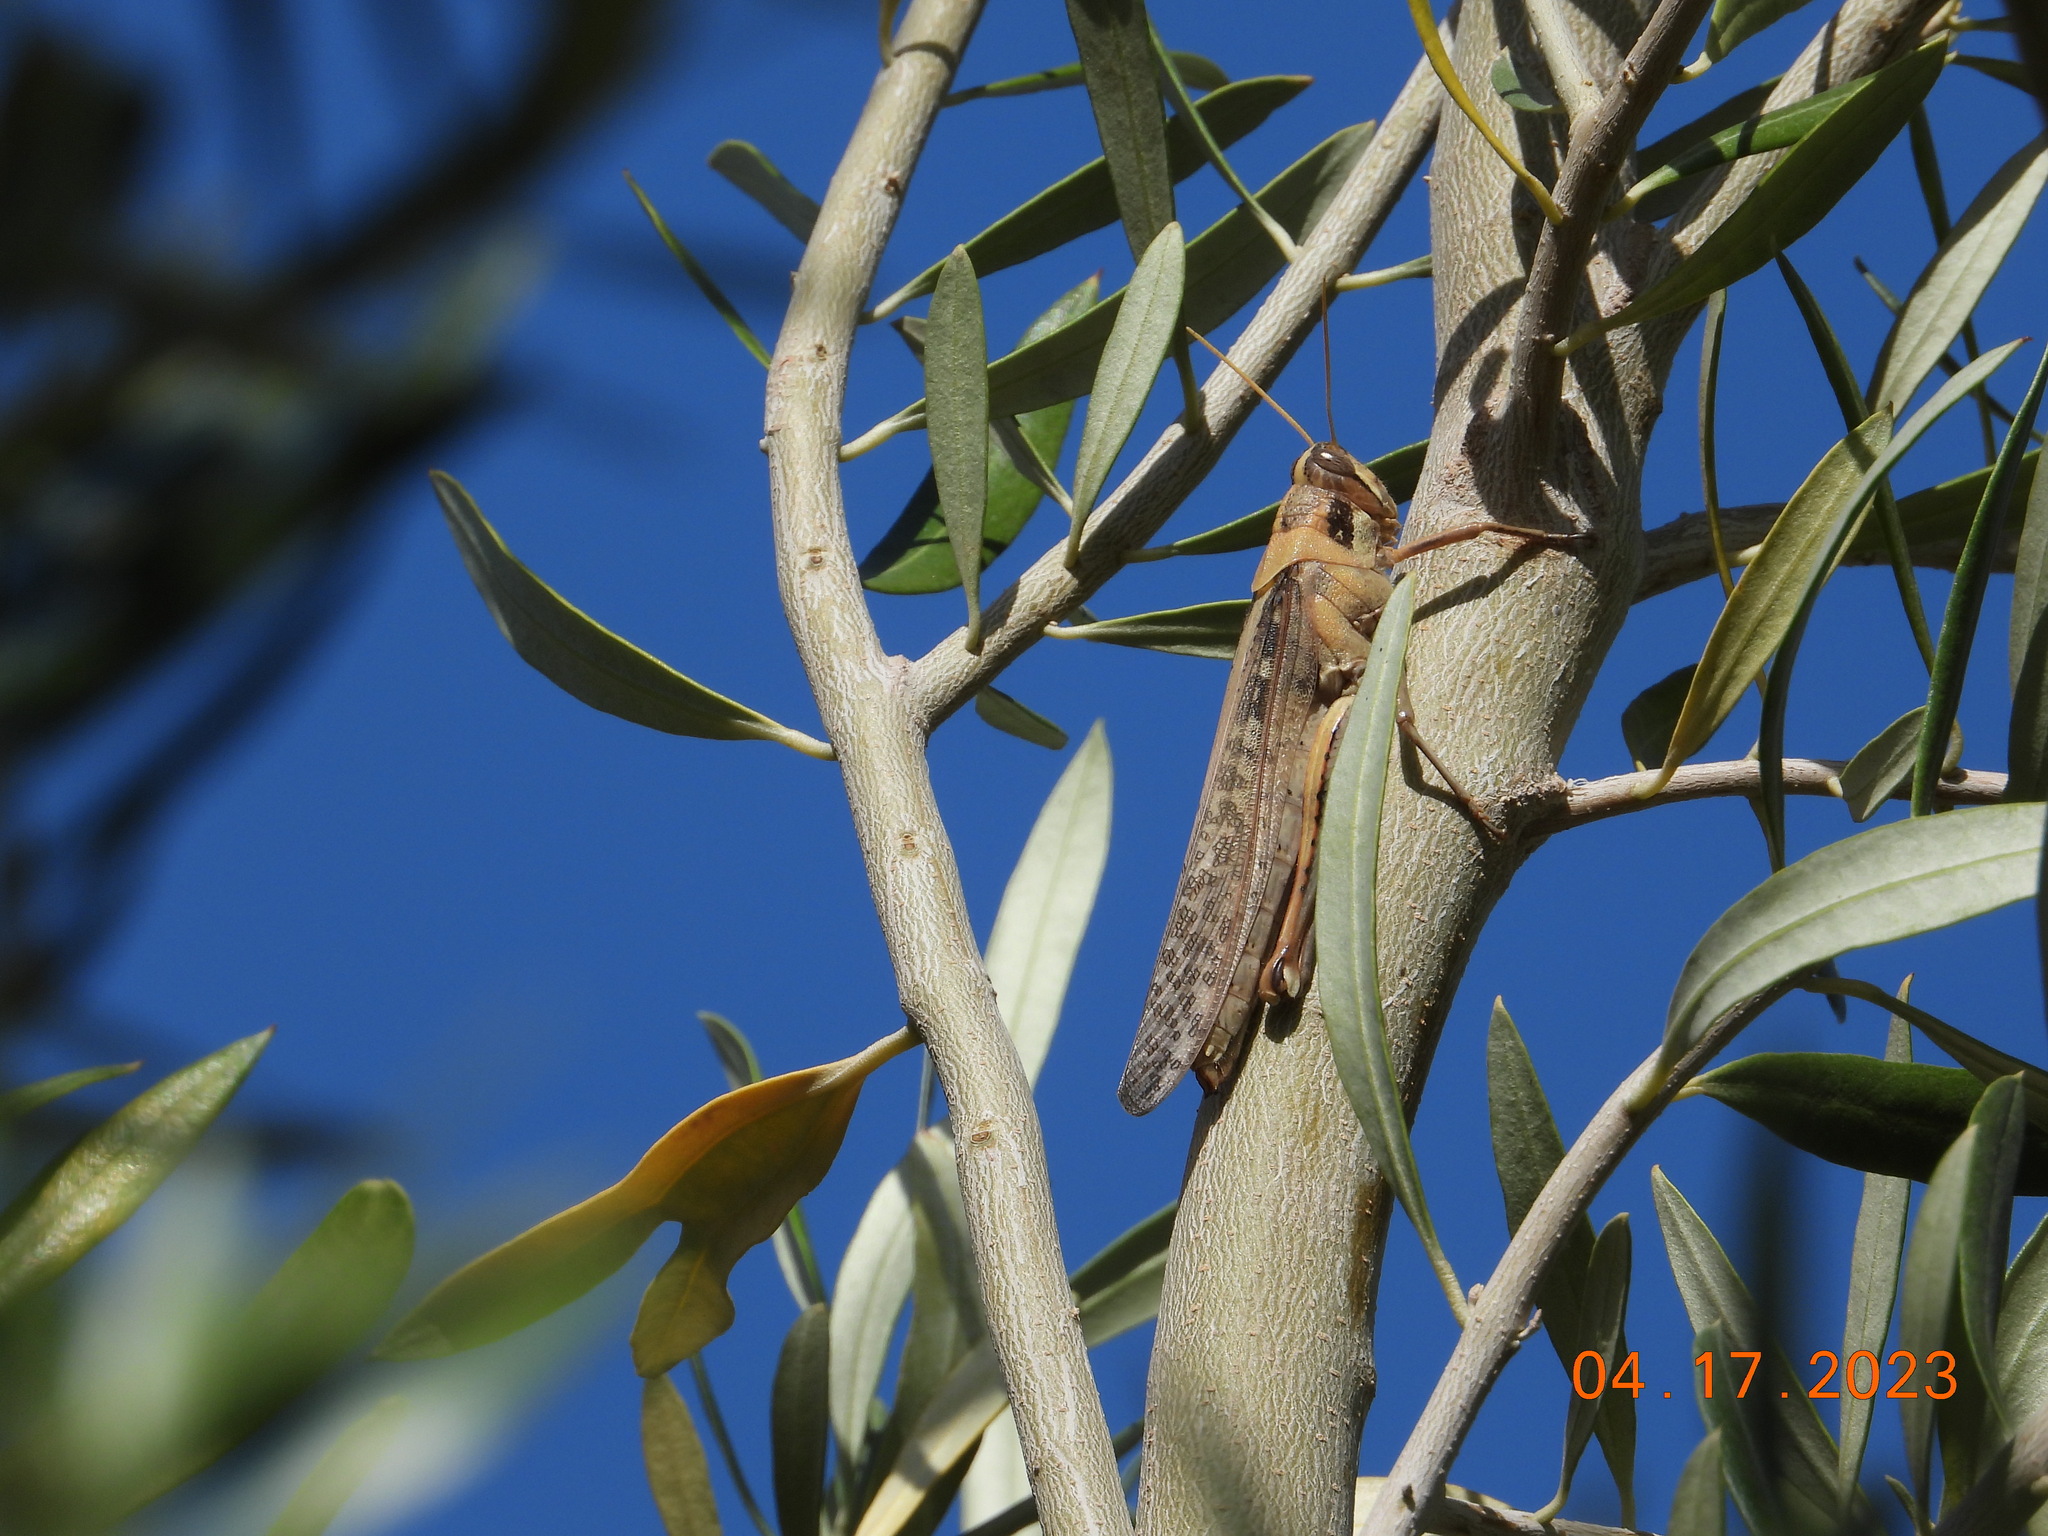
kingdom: Animalia
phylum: Arthropoda
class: Insecta
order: Orthoptera
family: Acrididae
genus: Schistocerca
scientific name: Schistocerca nitens
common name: Vagrant grasshopper
